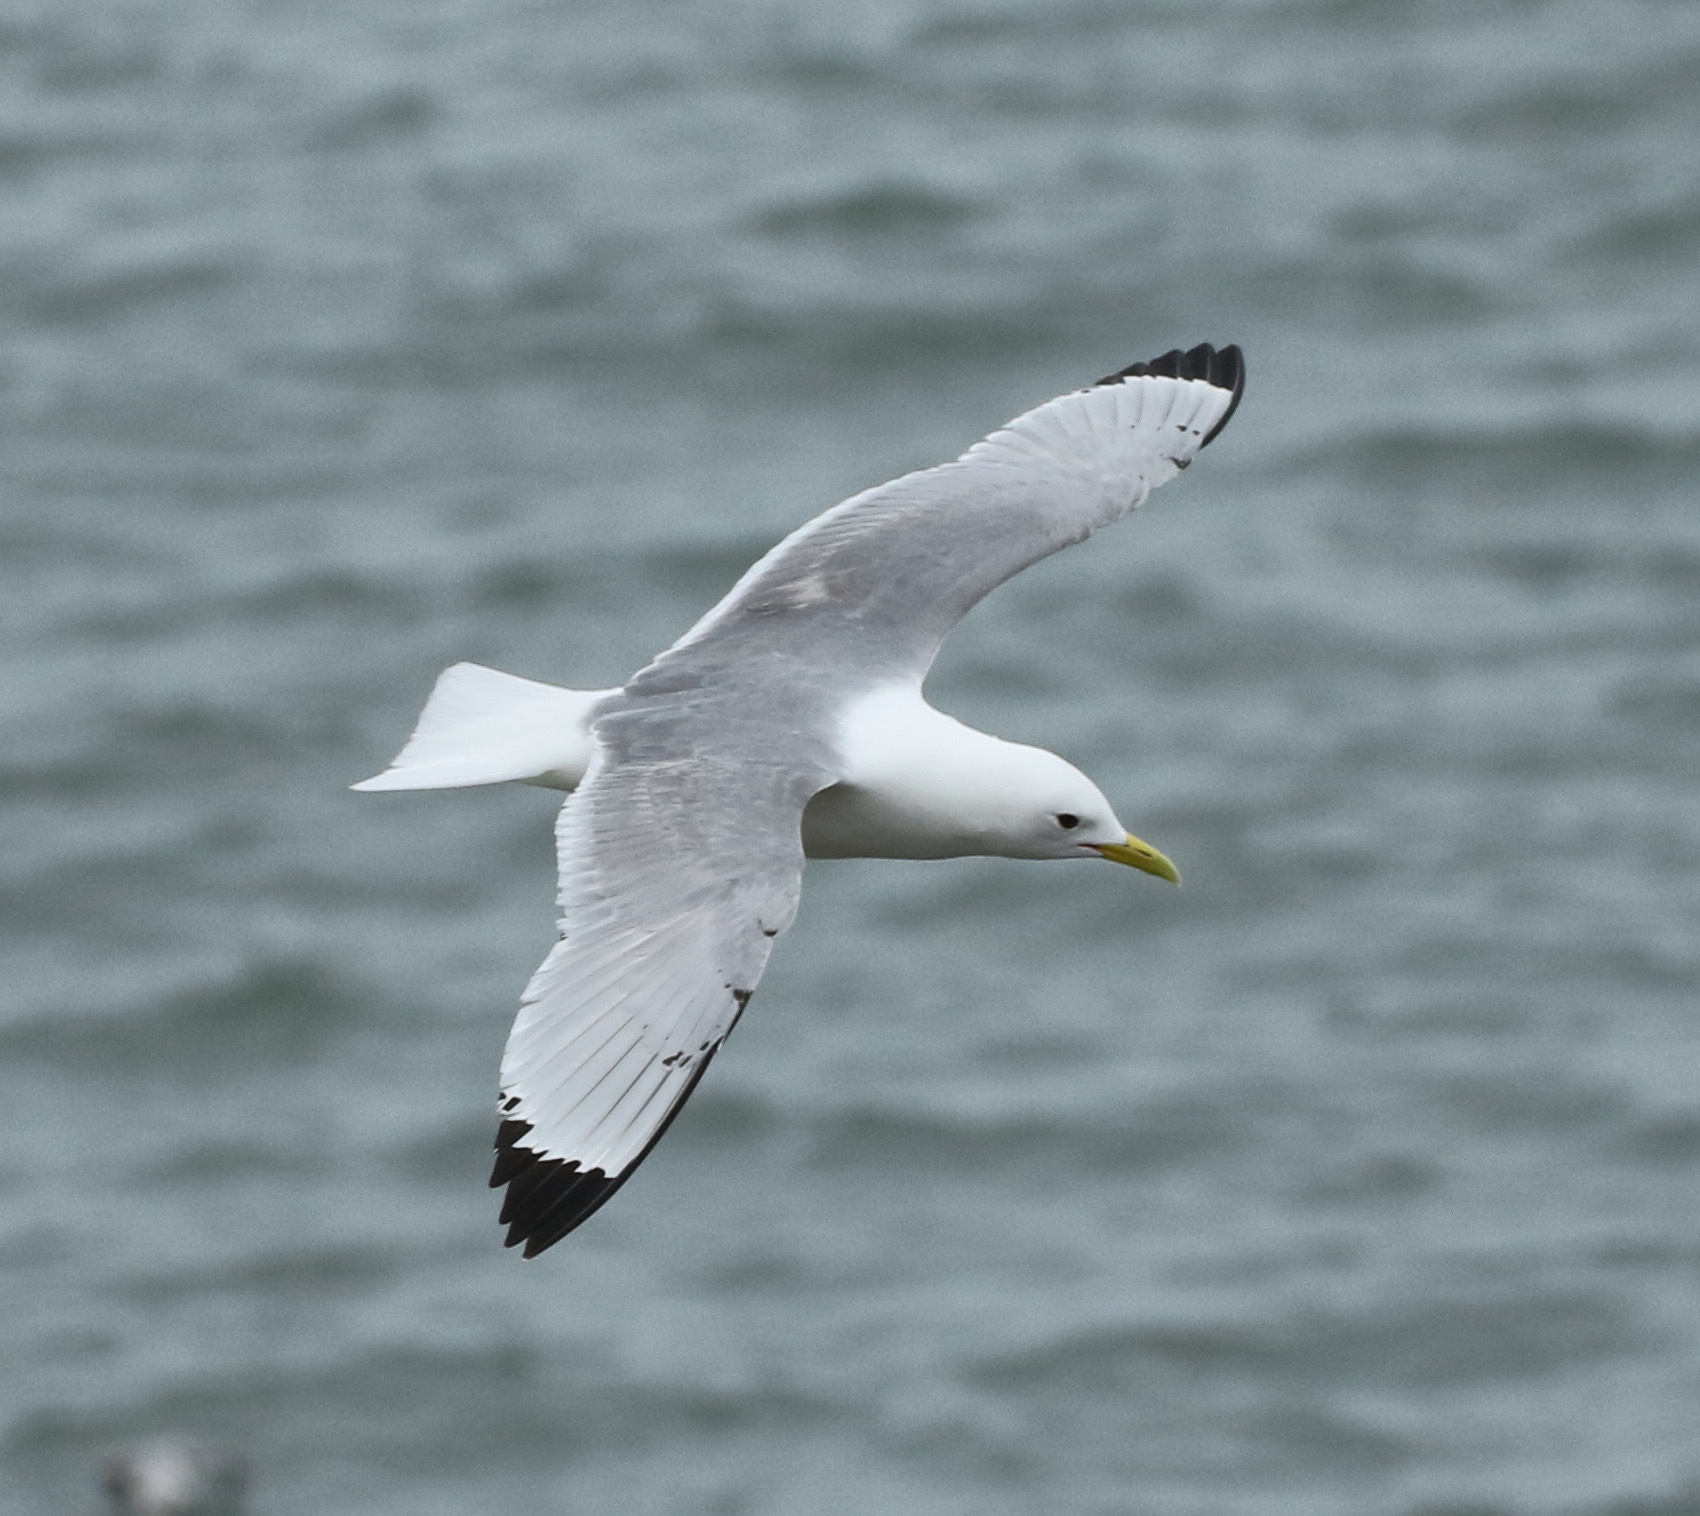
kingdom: Animalia
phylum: Chordata
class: Aves
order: Charadriiformes
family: Laridae
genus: Rissa
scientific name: Rissa tridactyla
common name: Black-legged kittiwake
